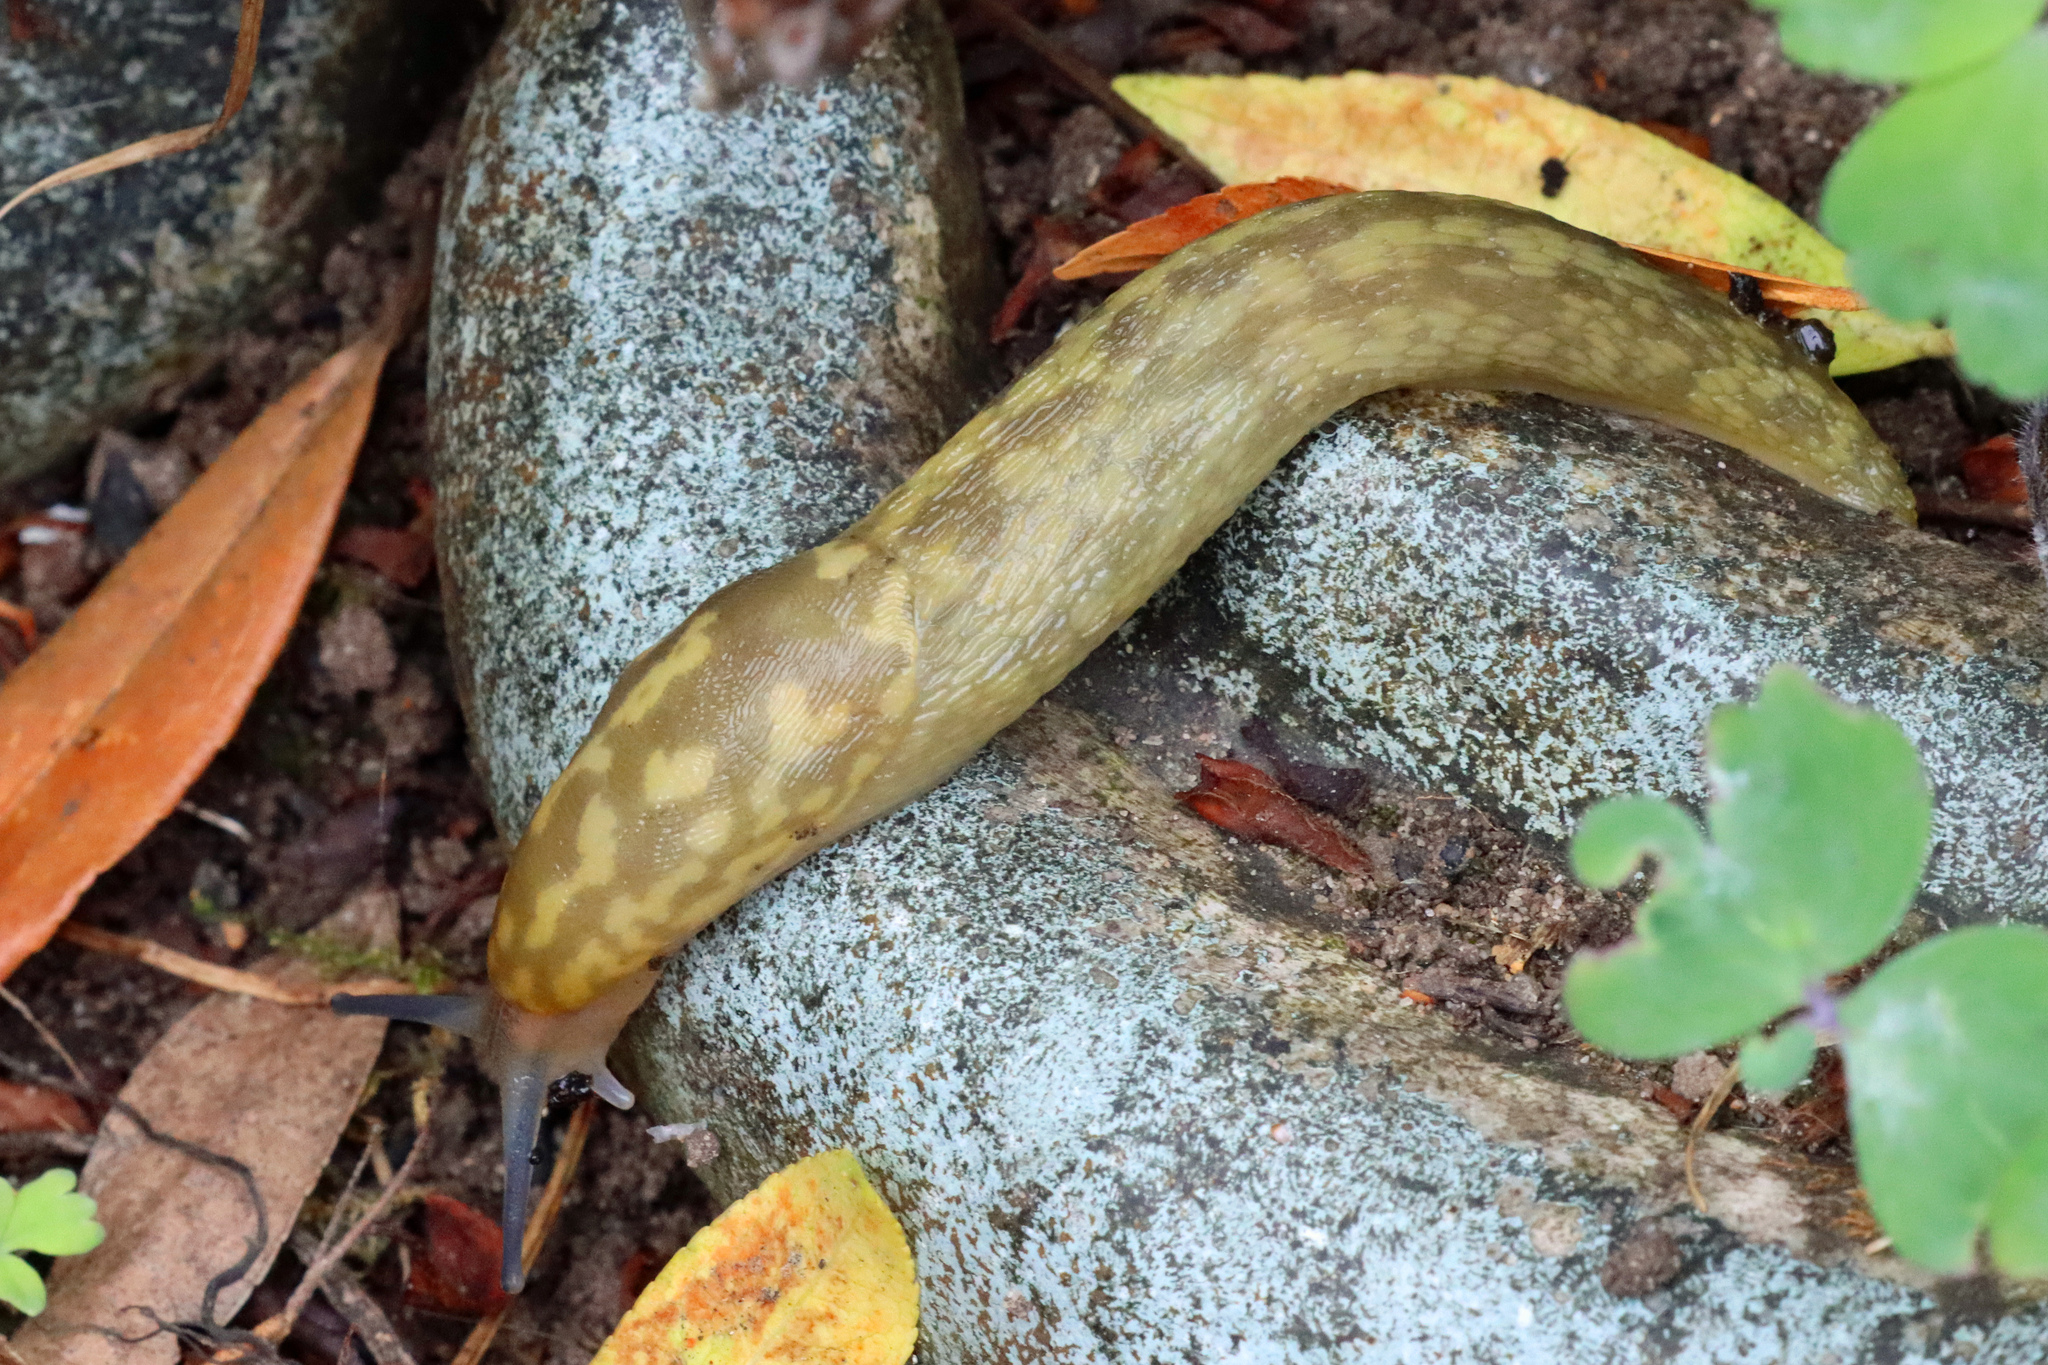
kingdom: Animalia
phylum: Mollusca
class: Gastropoda
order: Stylommatophora
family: Limacidae
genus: Limacus
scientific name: Limacus maculatus
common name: Irish yellow slug
